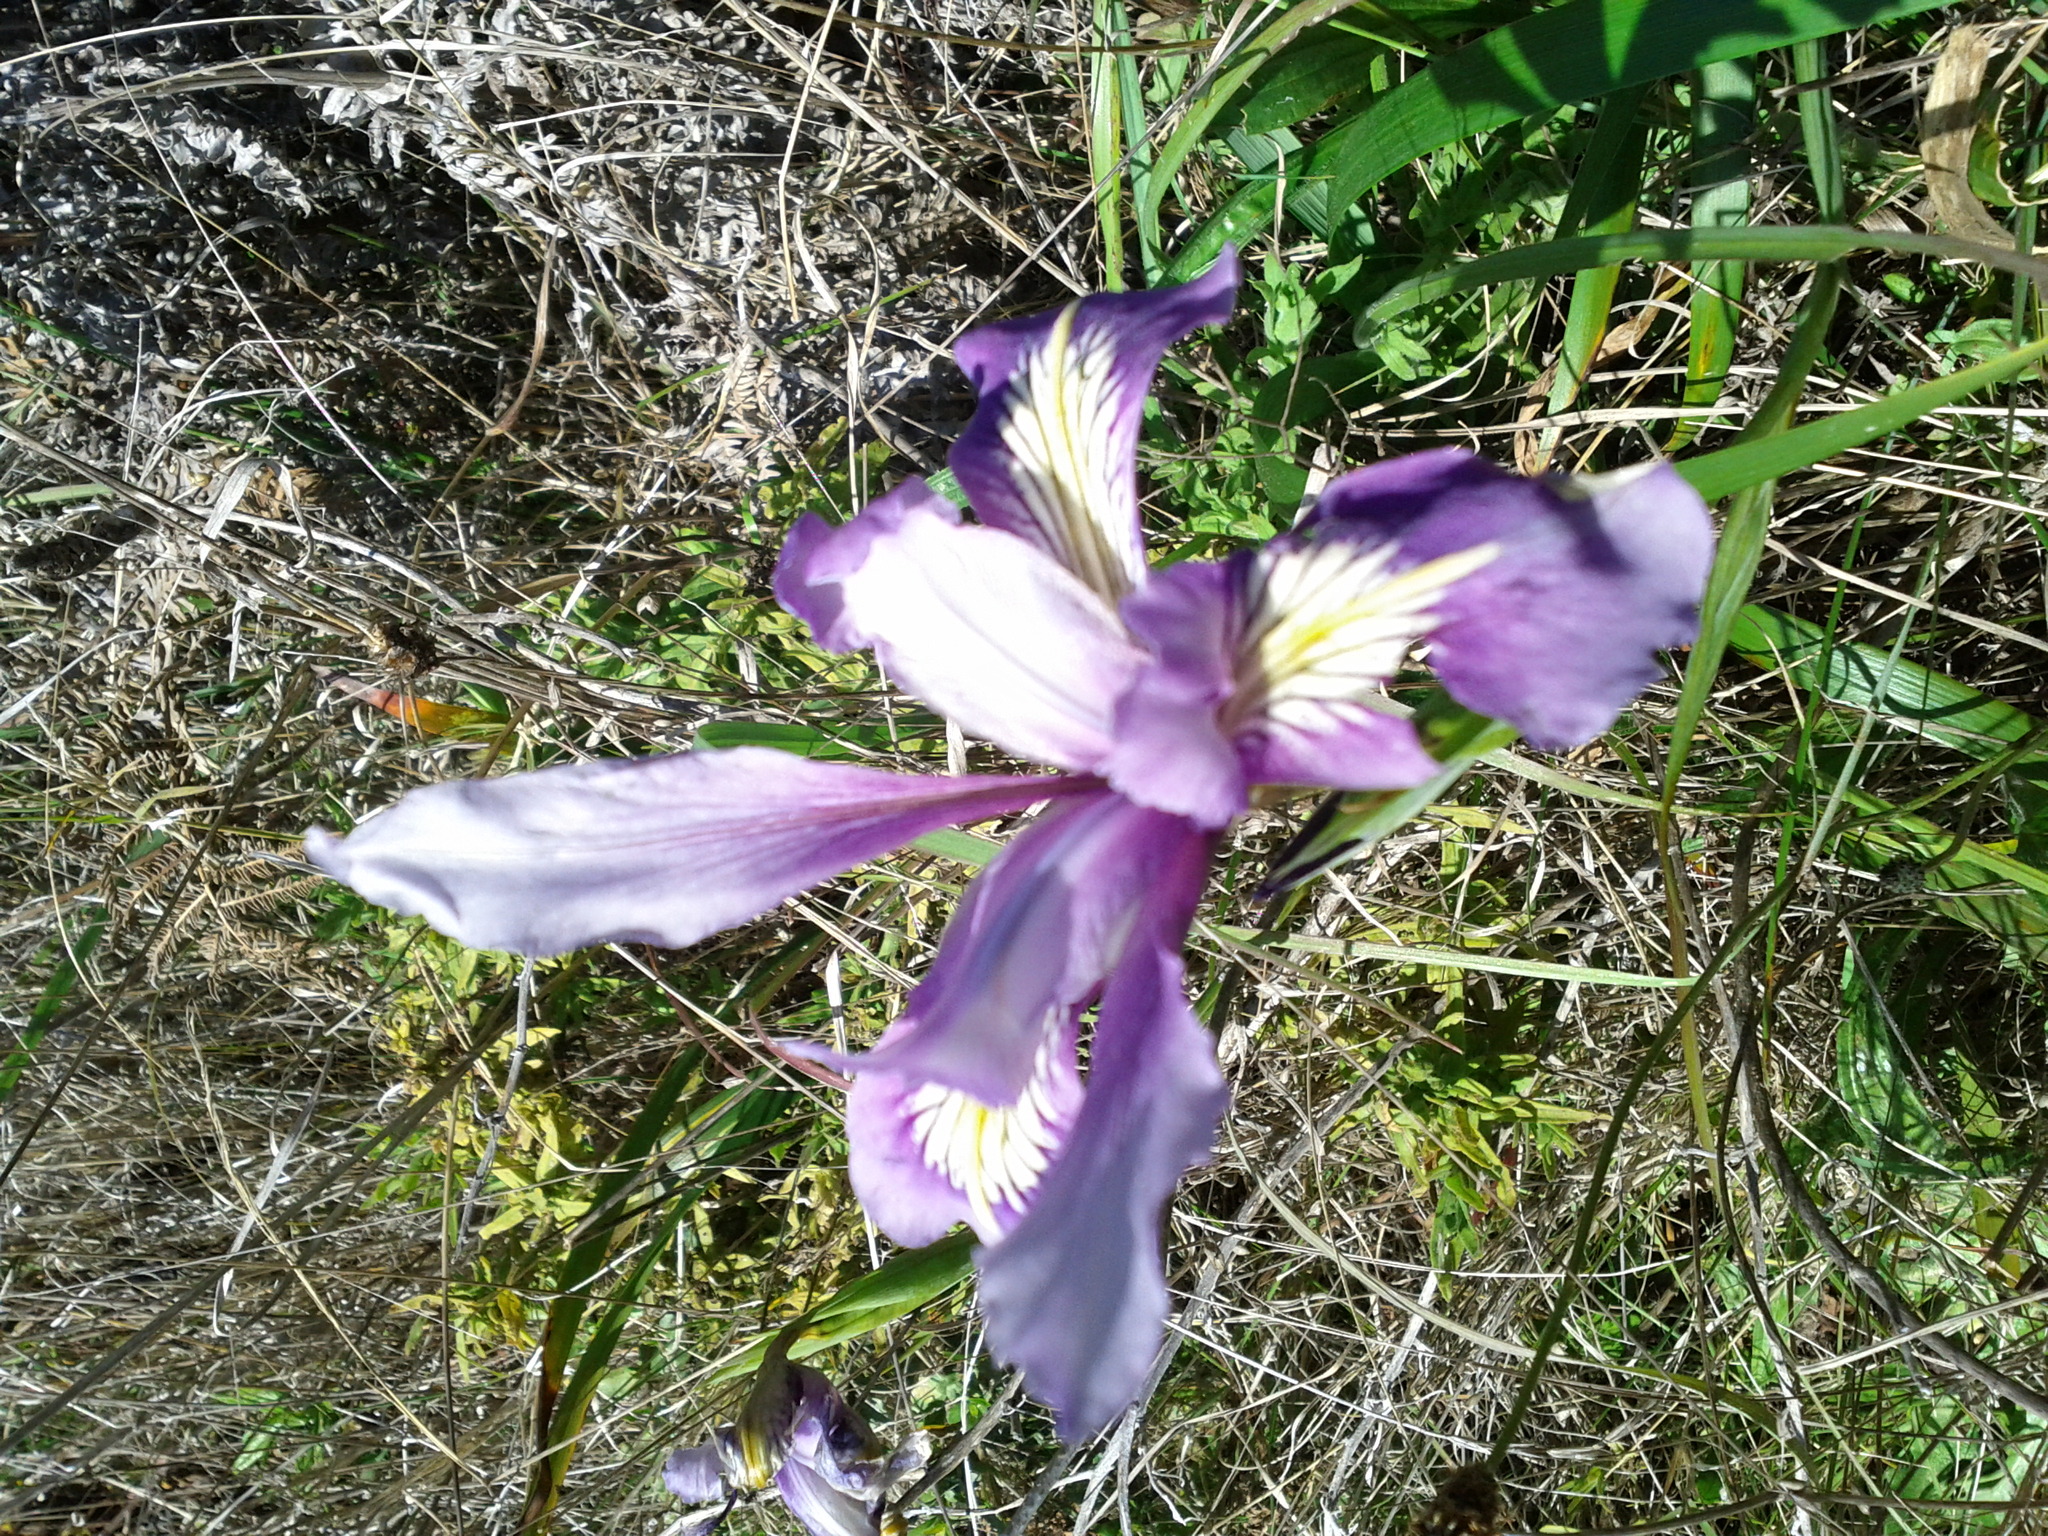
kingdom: Plantae
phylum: Tracheophyta
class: Liliopsida
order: Asparagales
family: Iridaceae
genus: Iris
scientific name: Iris douglasiana
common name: Marin iris
